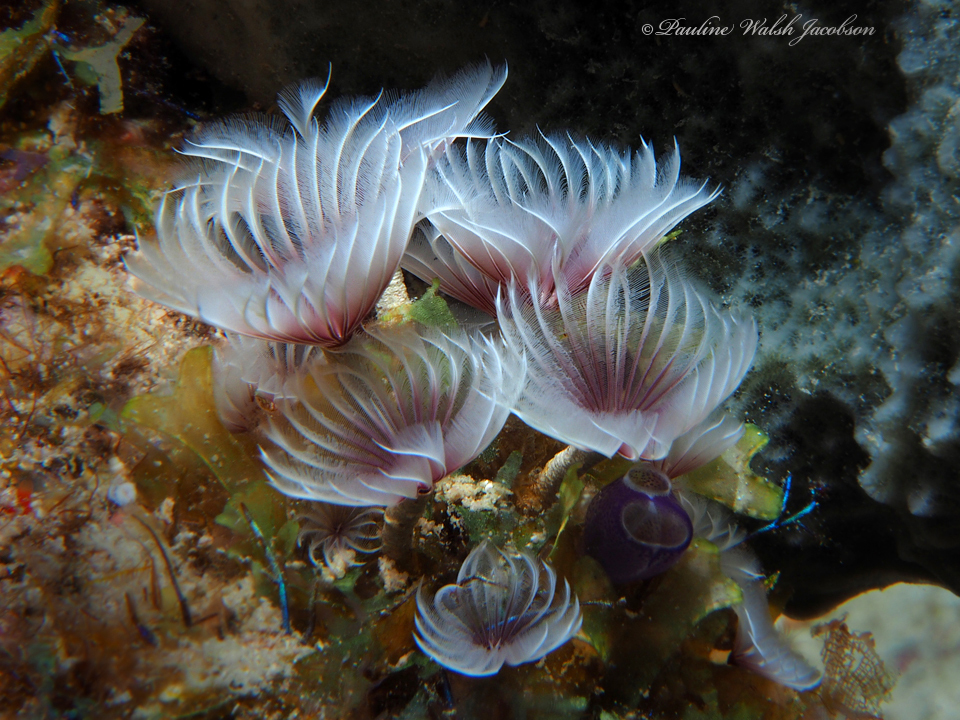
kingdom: Animalia
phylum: Annelida
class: Polychaeta
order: Sabellida
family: Sabellidae
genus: Bispira
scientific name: Bispira brunnea
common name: Social feather duster
